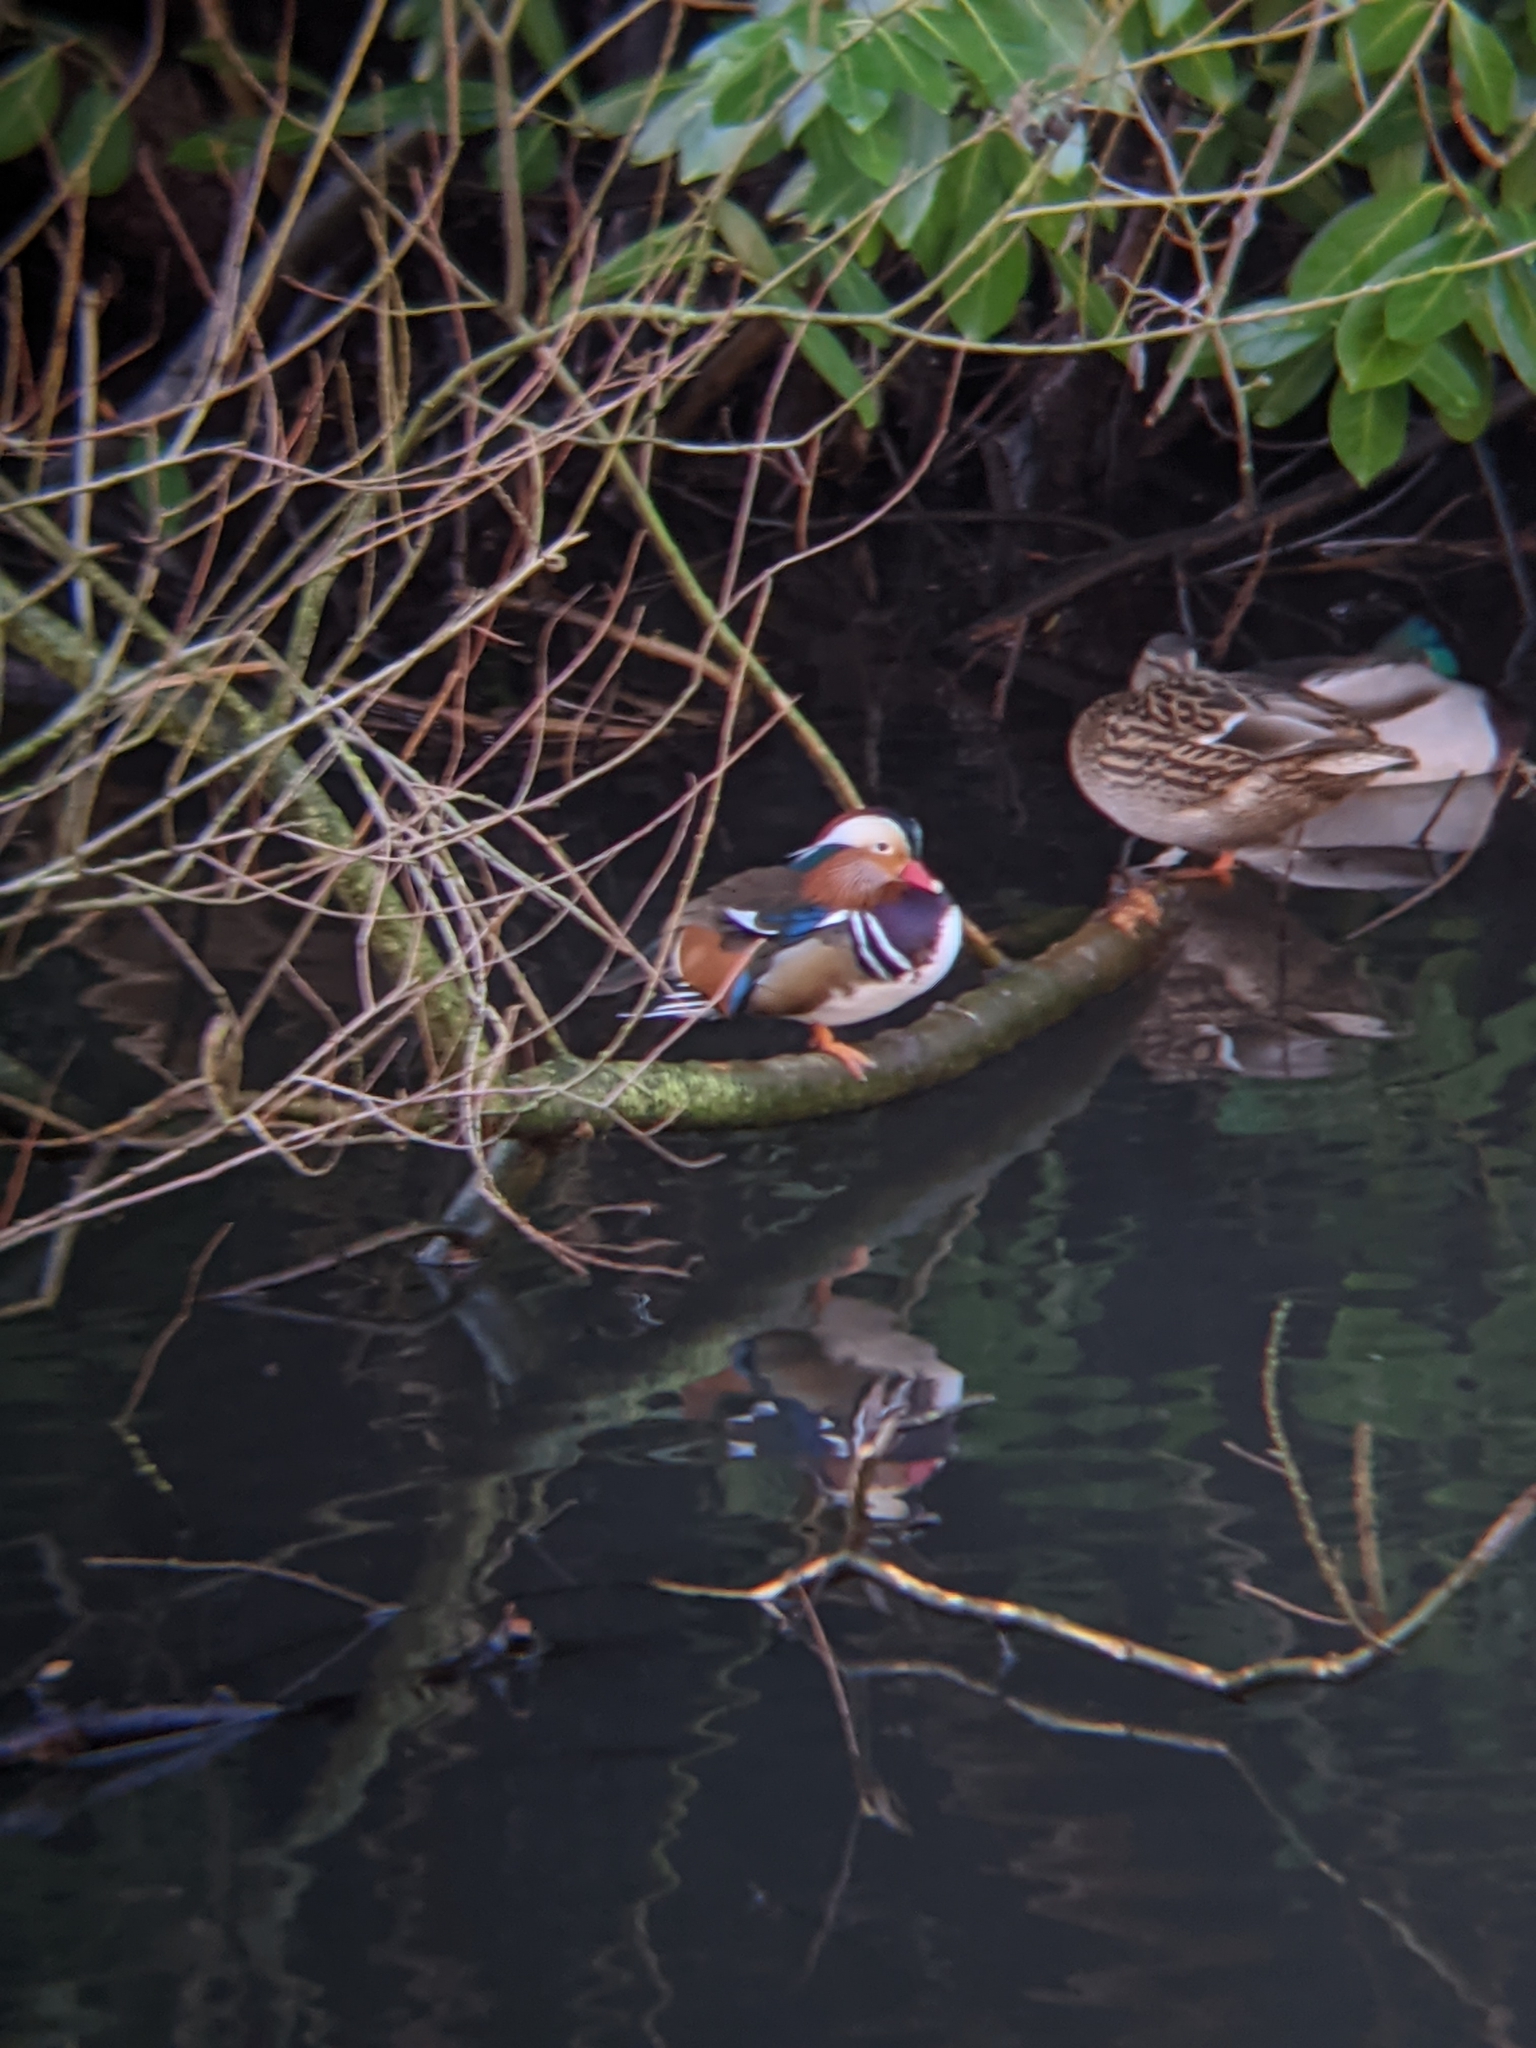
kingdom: Animalia
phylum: Chordata
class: Aves
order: Anseriformes
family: Anatidae
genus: Aix
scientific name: Aix galericulata
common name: Mandarin duck
